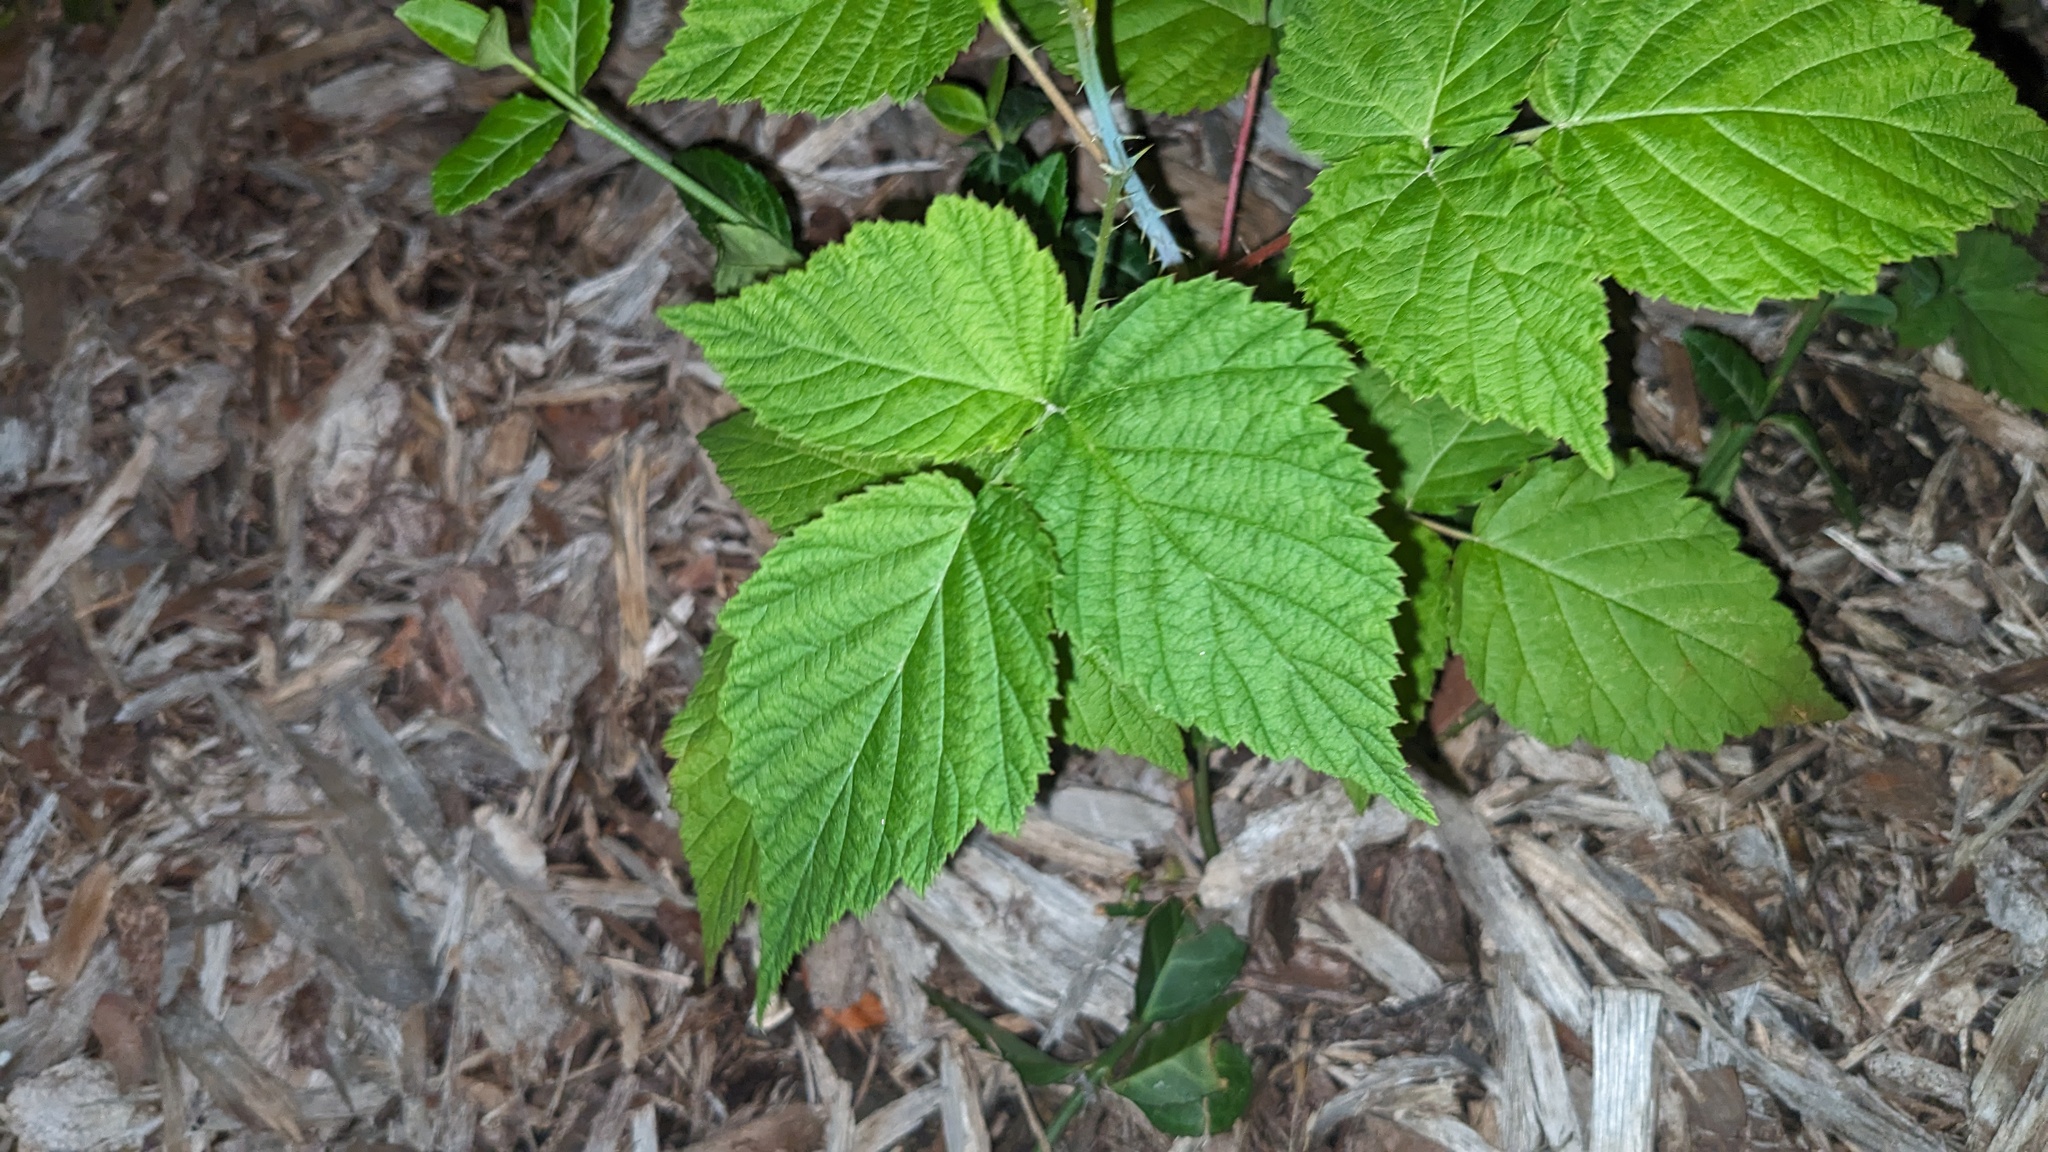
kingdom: Plantae
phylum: Tracheophyta
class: Magnoliopsida
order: Rosales
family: Rosaceae
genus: Rubus
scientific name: Rubus occidentalis
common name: Black raspberry
